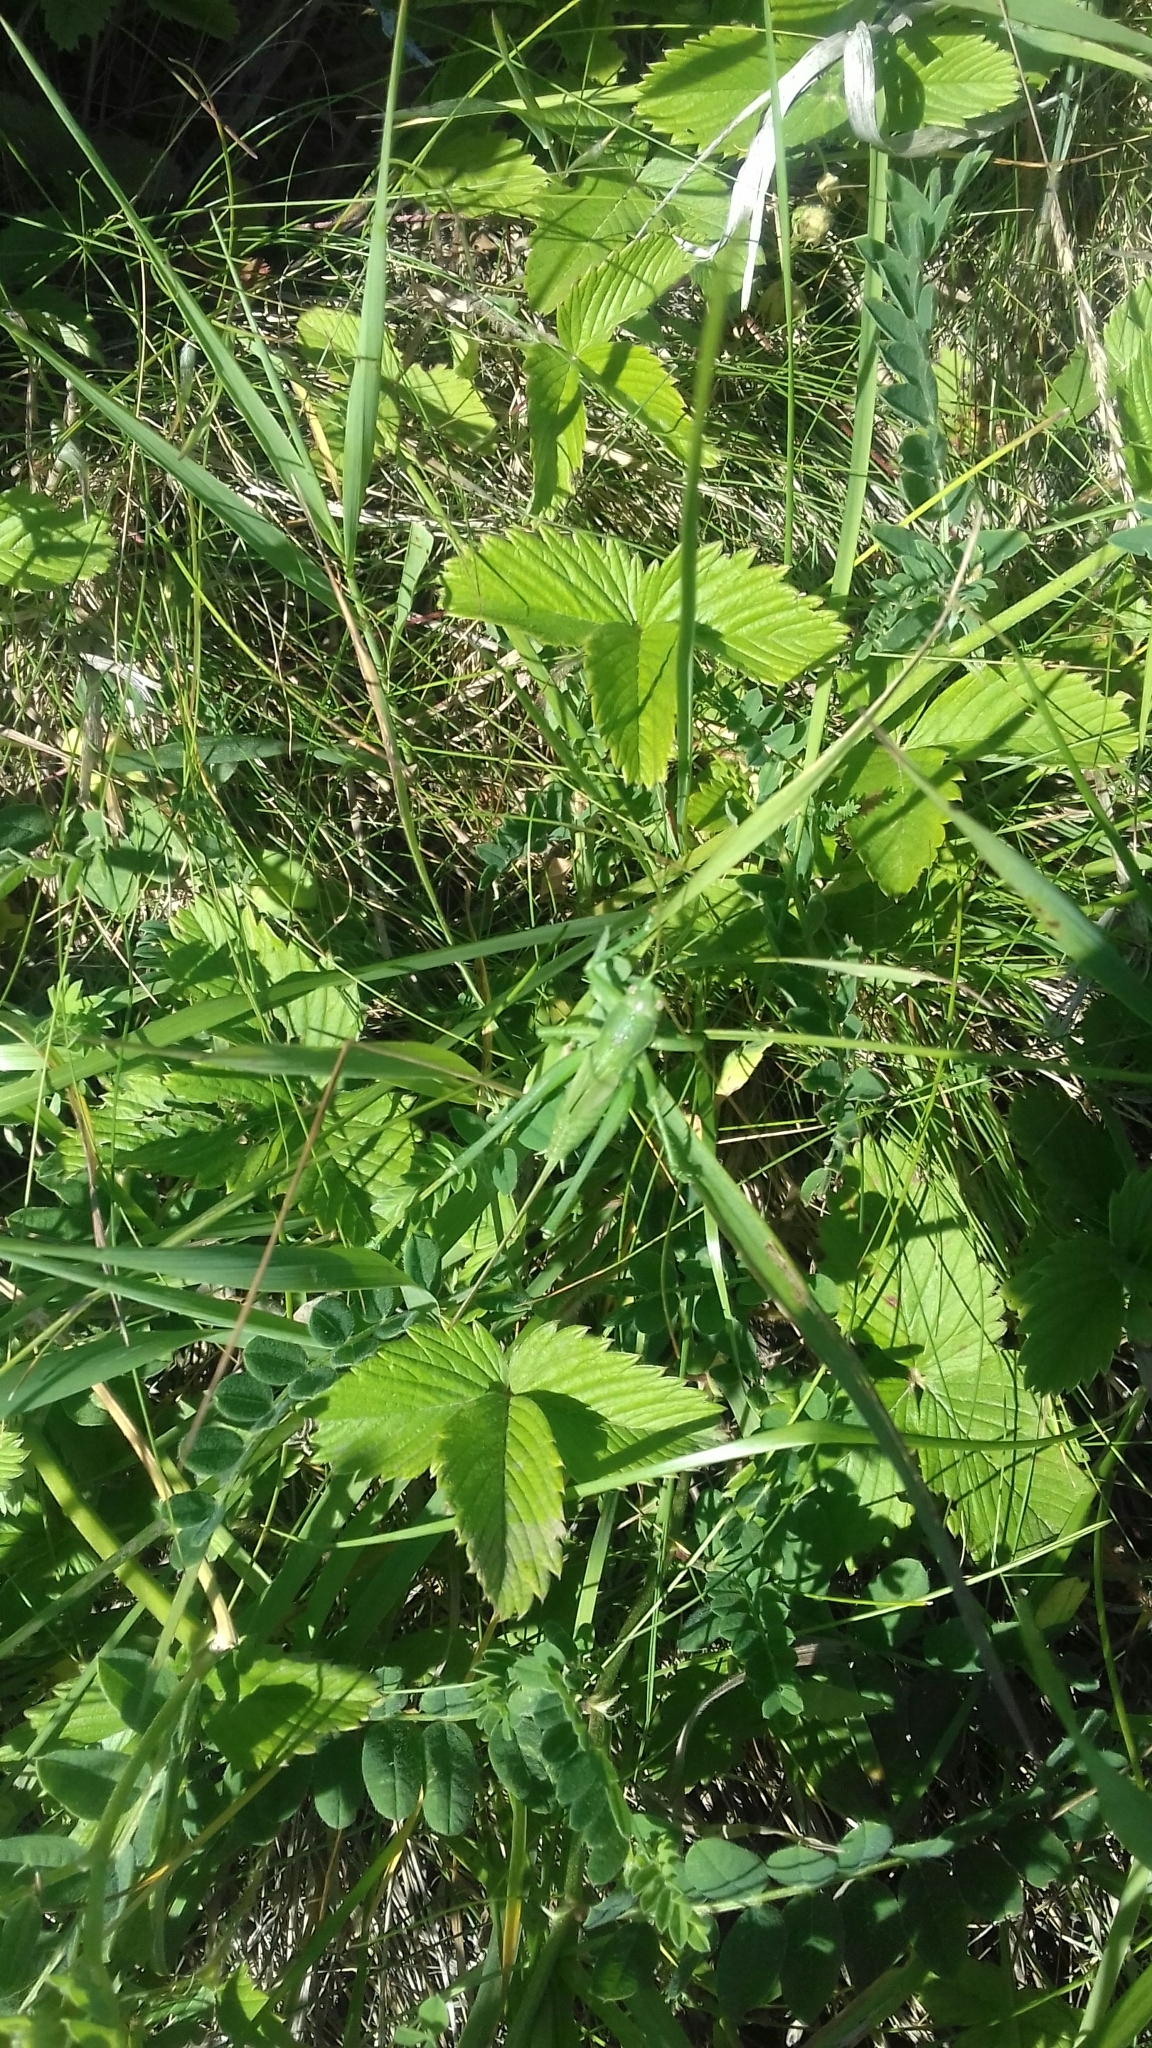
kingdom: Animalia
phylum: Arthropoda
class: Insecta
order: Orthoptera
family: Tettigoniidae
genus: Tettigonia
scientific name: Tettigonia caudata
